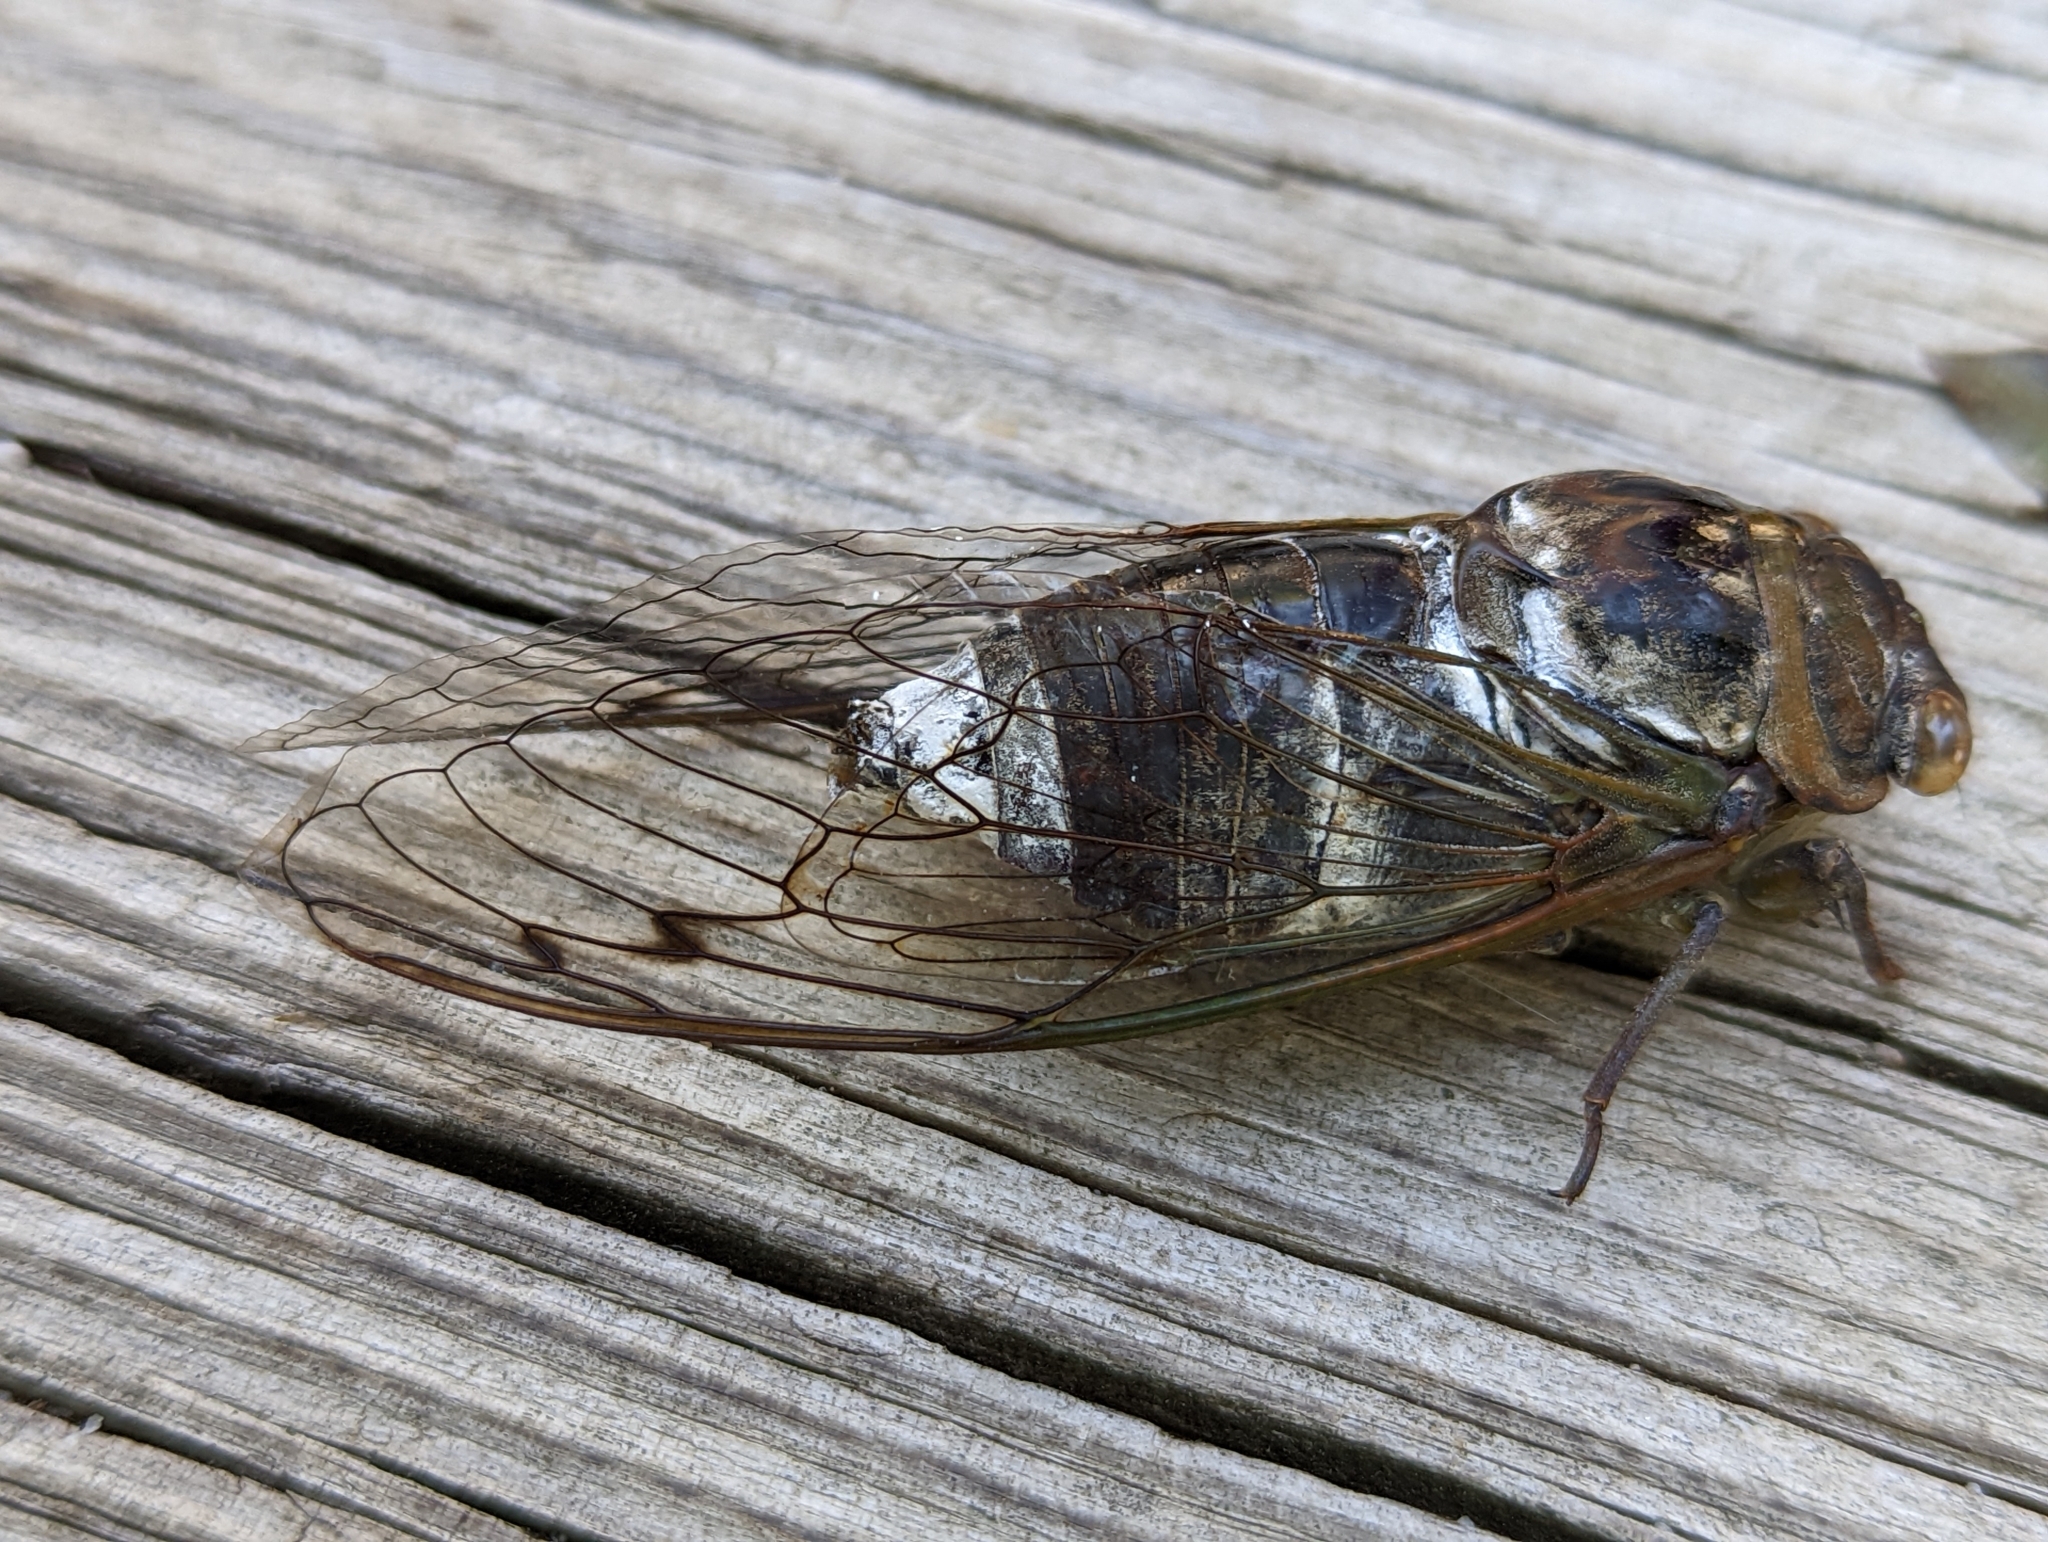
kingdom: Animalia
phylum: Arthropoda
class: Insecta
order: Hemiptera
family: Cicadidae
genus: Diceroprocta
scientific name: Diceroprocta grossa
